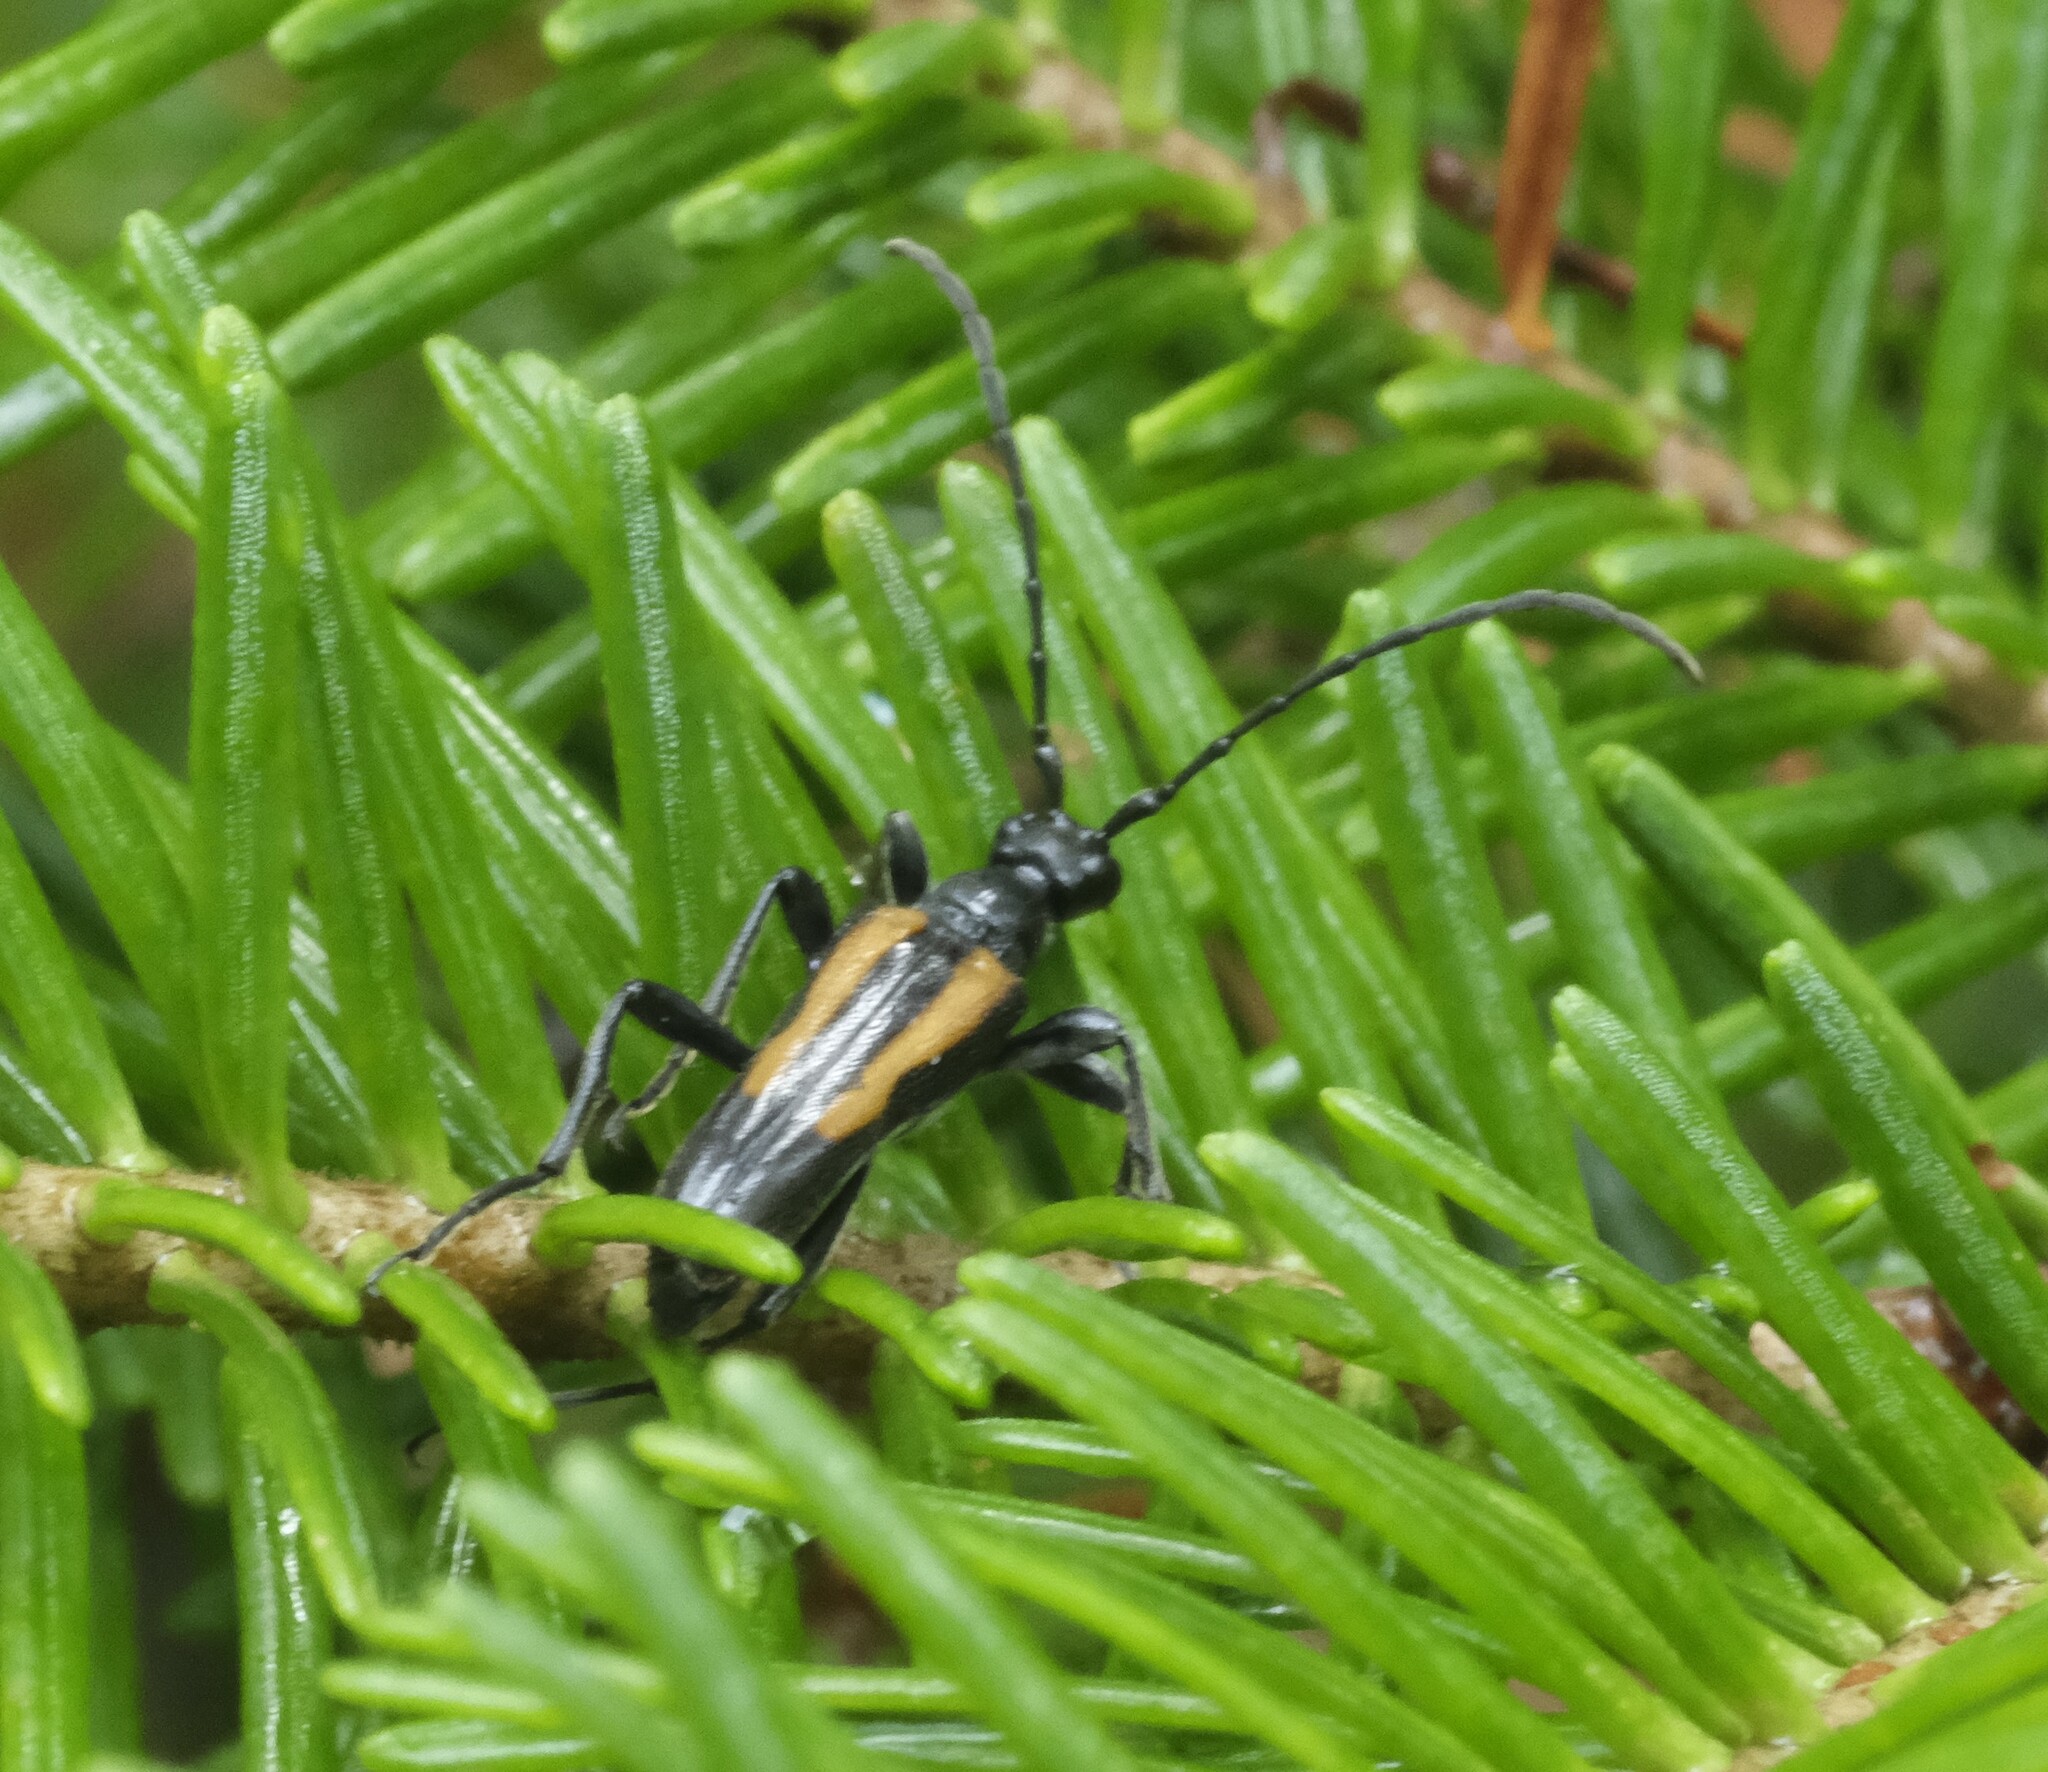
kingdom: Animalia
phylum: Arthropoda
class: Insecta
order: Coleoptera
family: Cerambycidae
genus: Strangalepta
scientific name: Strangalepta abbreviata
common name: Strangalepta flower longhorn beetle
